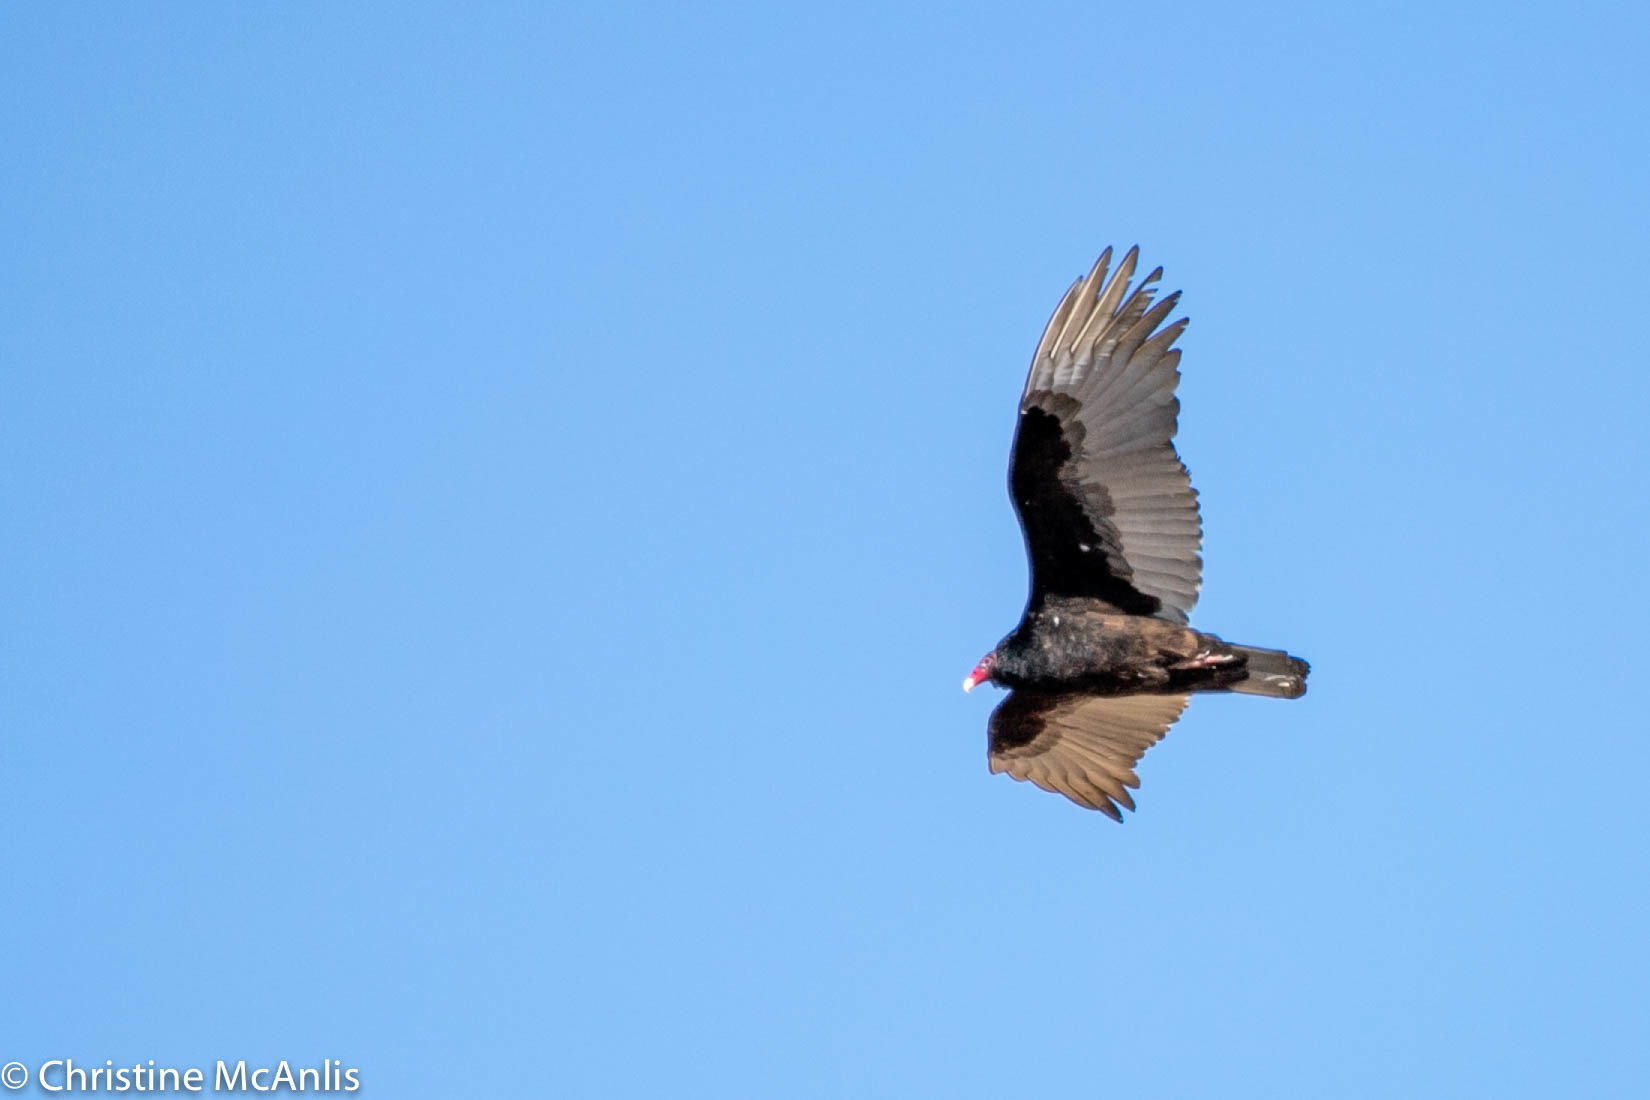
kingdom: Animalia
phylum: Chordata
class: Aves
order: Accipitriformes
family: Cathartidae
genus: Cathartes
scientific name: Cathartes aura
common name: Turkey vulture
